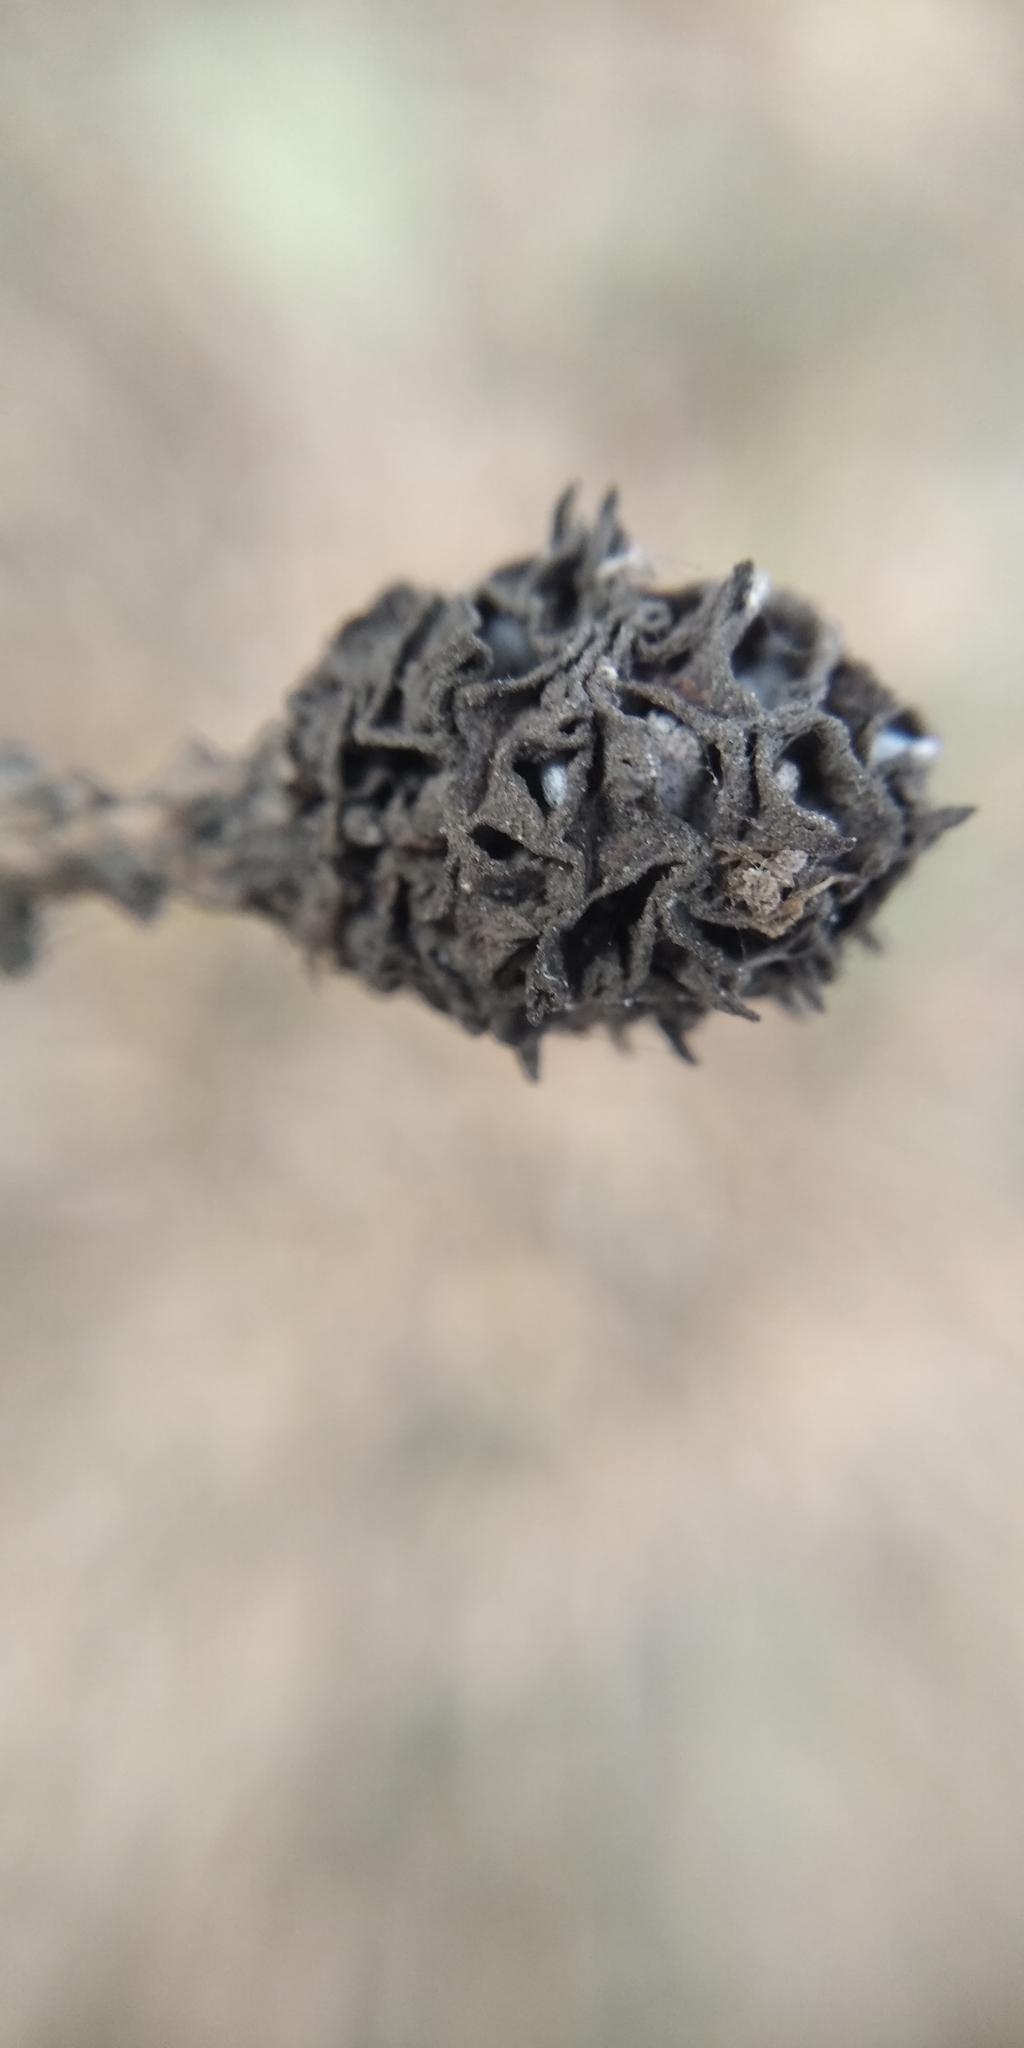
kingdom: Animalia
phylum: Arthropoda
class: Insecta
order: Hemiptera
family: Adelgidae
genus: Adelges
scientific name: Adelges abietis
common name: Eastern spruce gall adelgid
